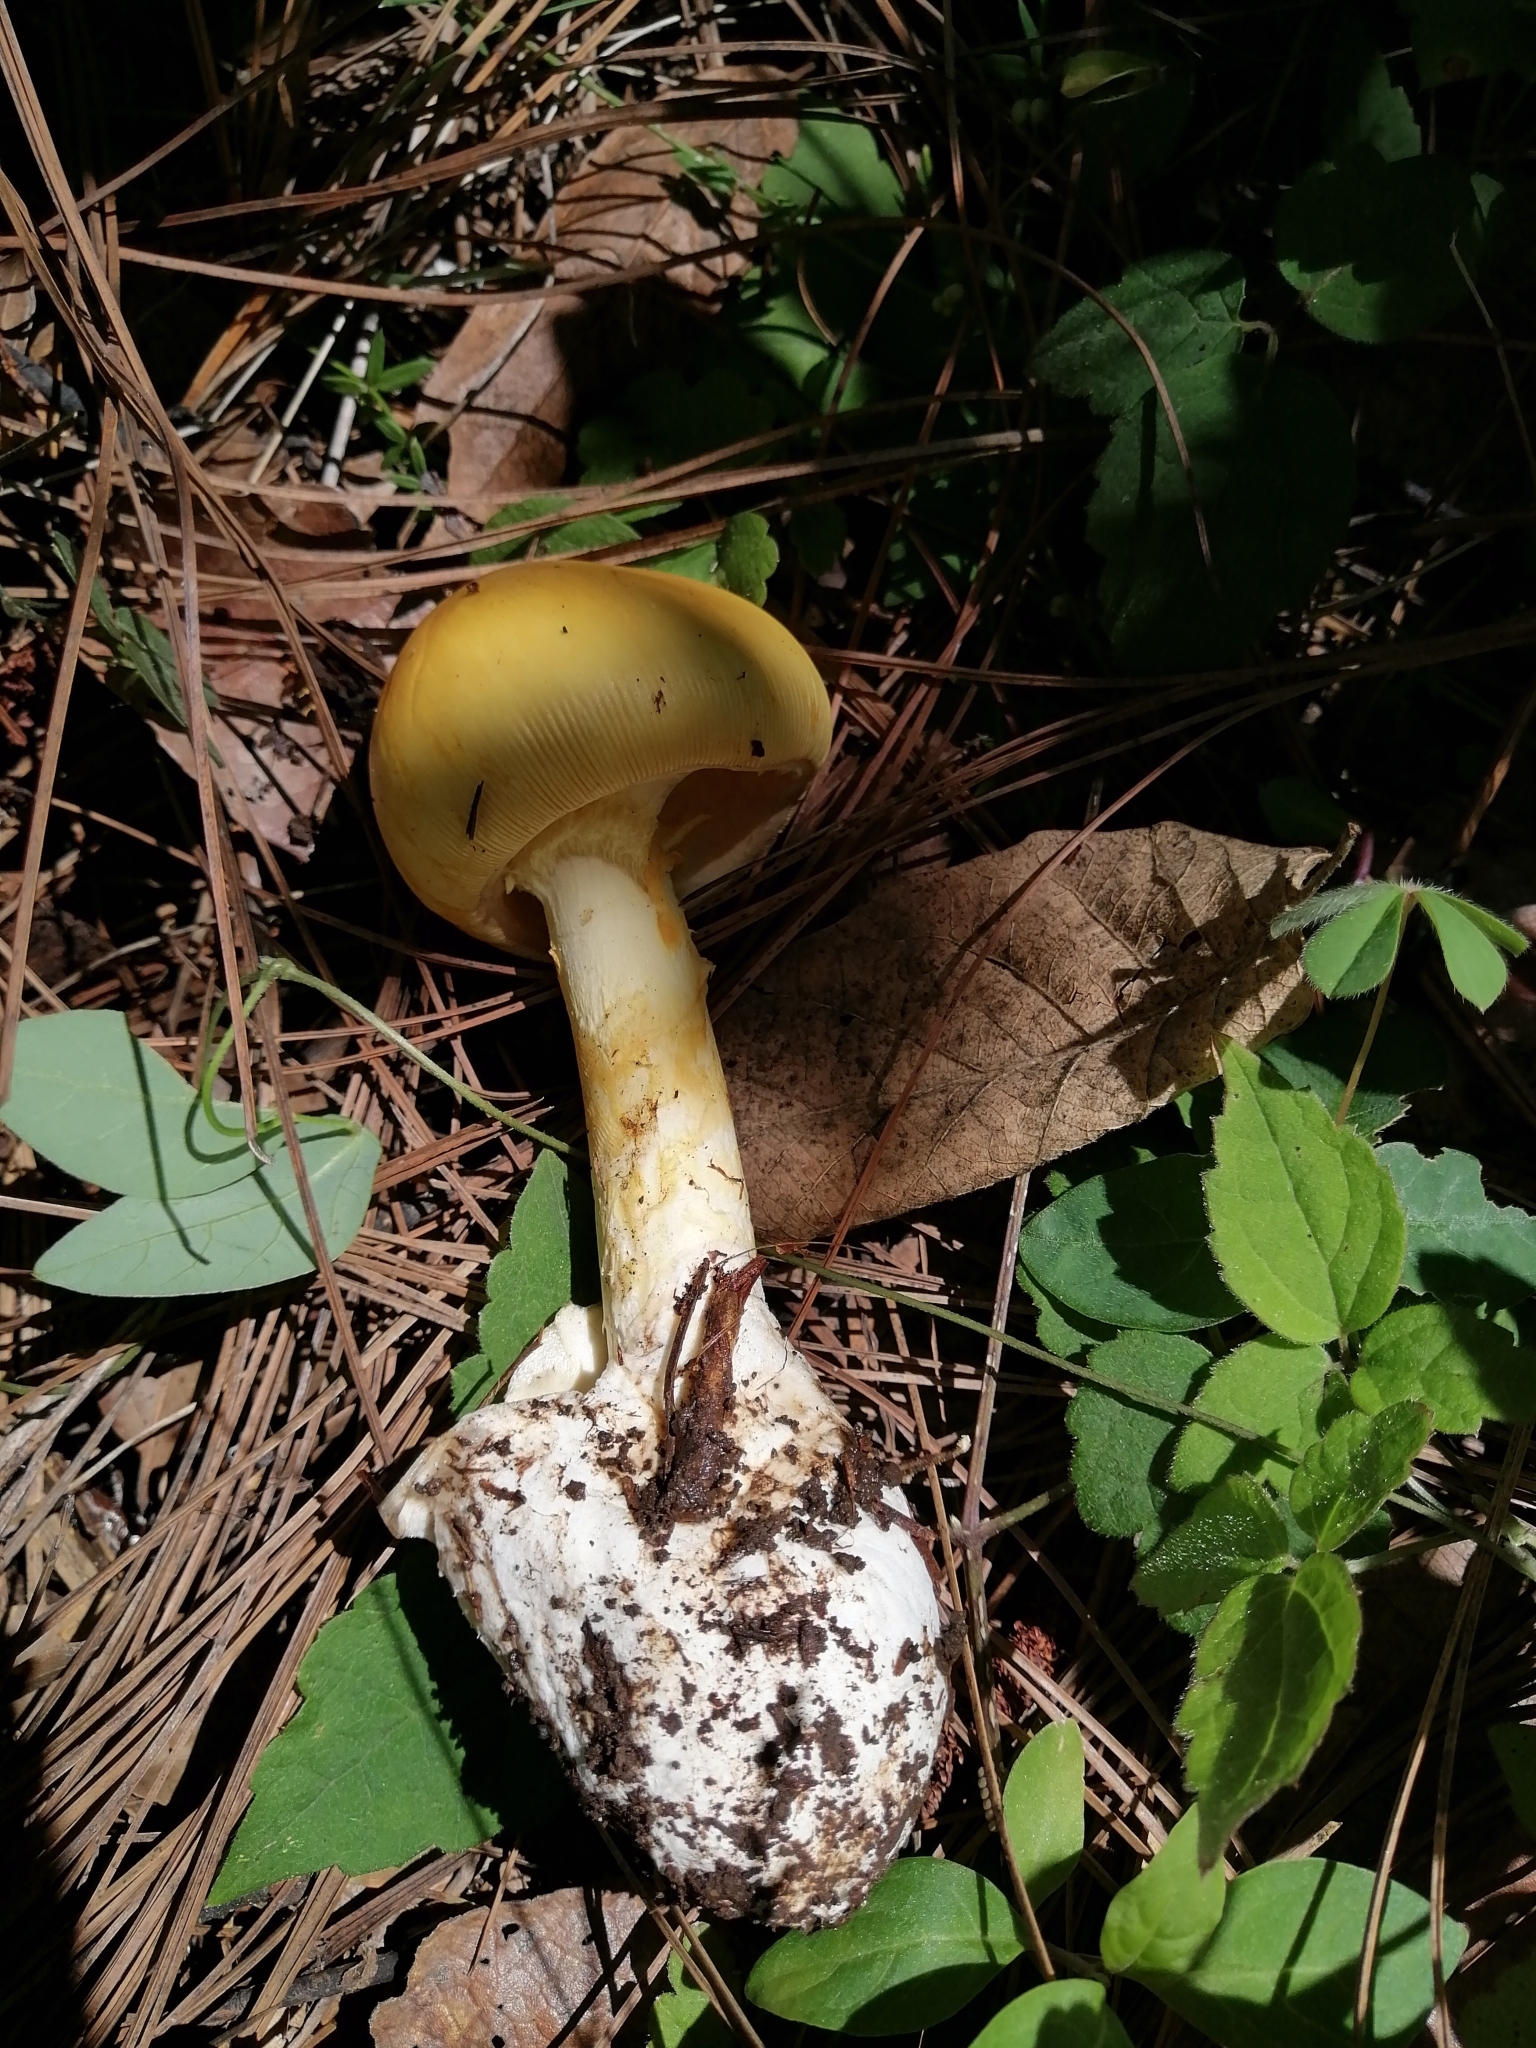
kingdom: Fungi
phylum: Basidiomycota
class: Agaricomycetes
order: Agaricales
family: Amanitaceae
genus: Amanita
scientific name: Amanita basii
